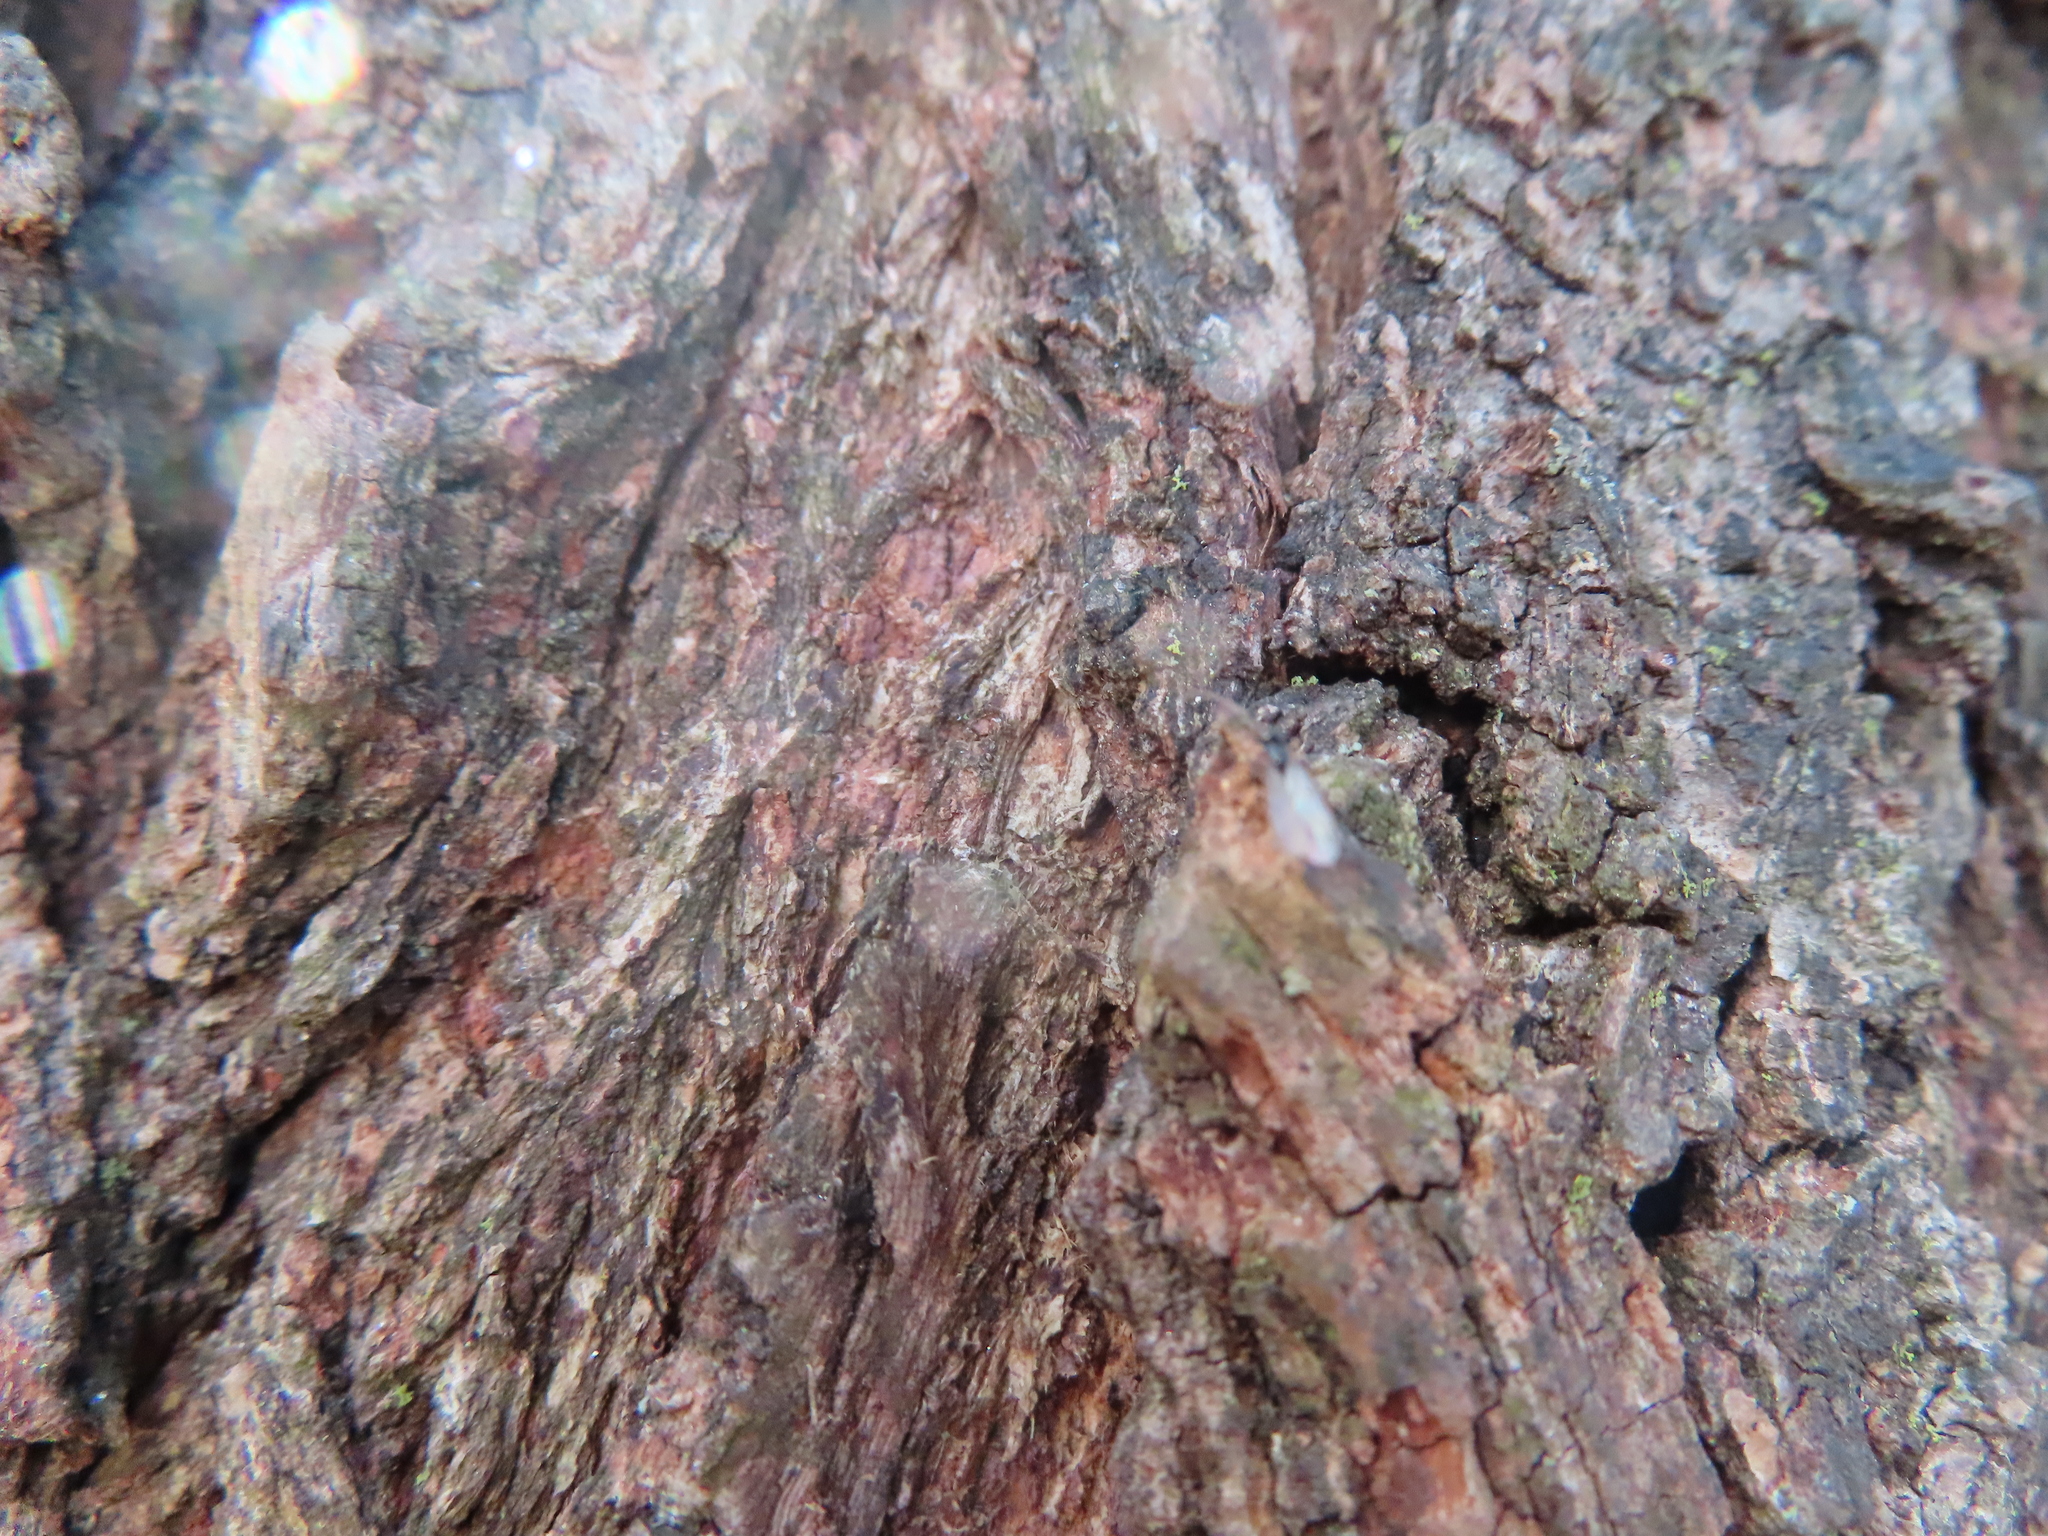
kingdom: Animalia
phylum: Arthropoda
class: Insecta
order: Hymenoptera
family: Formicidae
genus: Prenolepis
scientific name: Prenolepis imparis
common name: Small honey ant
